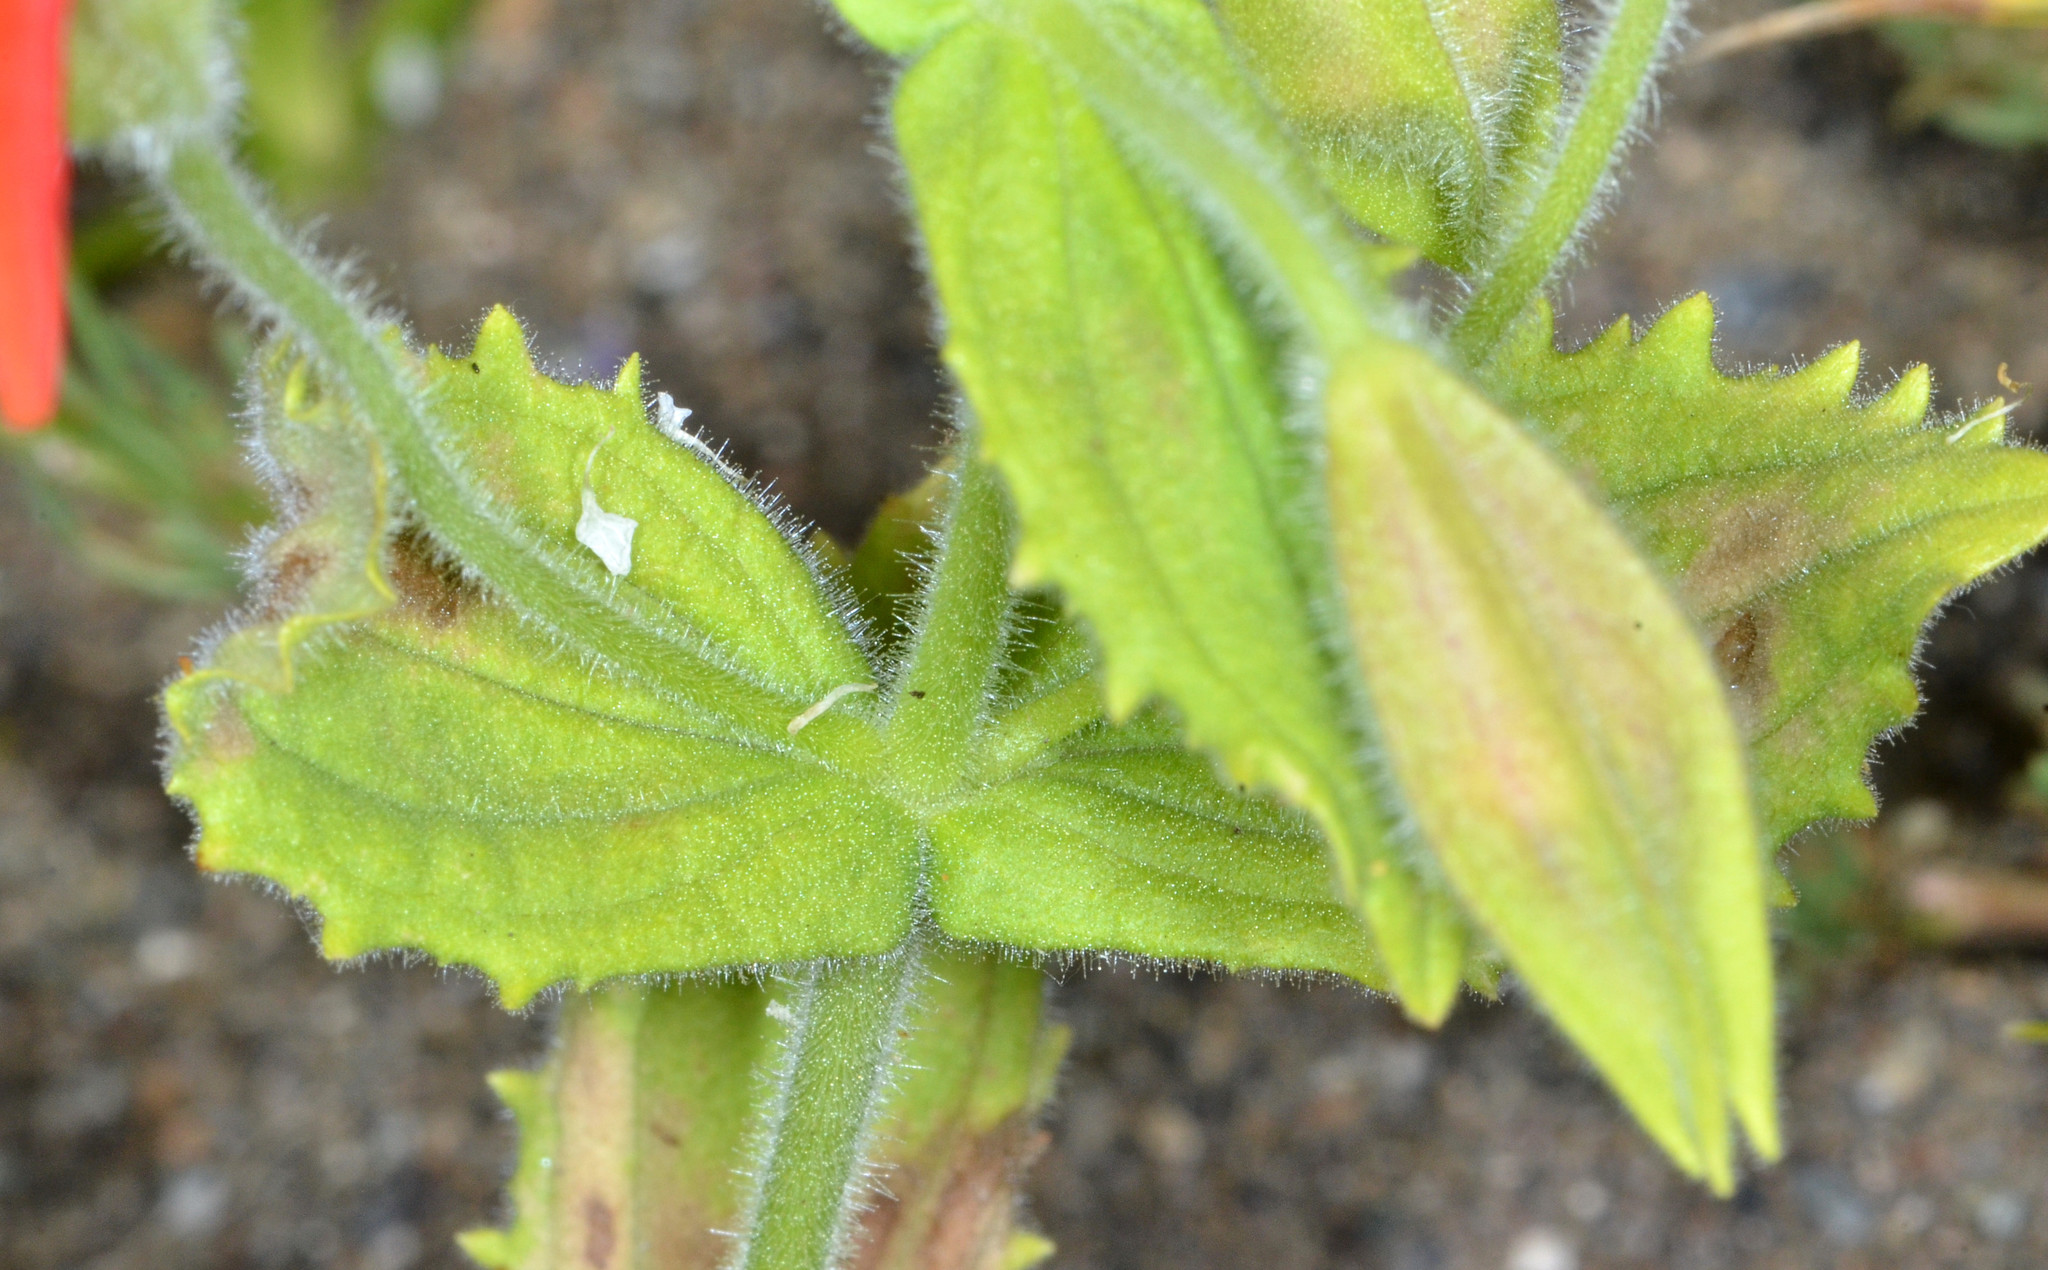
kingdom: Plantae
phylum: Tracheophyta
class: Magnoliopsida
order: Lamiales
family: Phrymaceae
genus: Erythranthe
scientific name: Erythranthe cardinalis
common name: Scarlet monkey-flower
